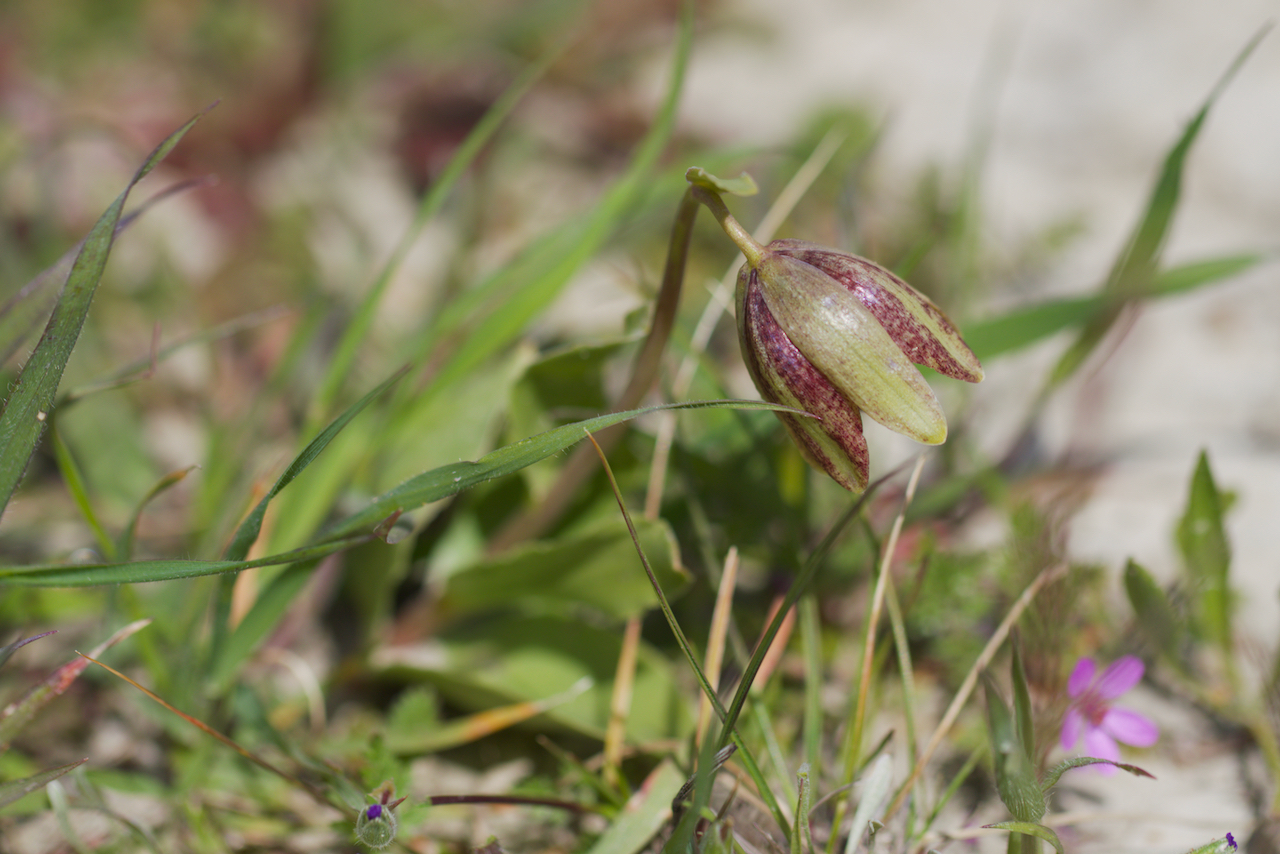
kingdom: Plantae
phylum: Tracheophyta
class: Liliopsida
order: Liliales
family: Liliaceae
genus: Fritillaria
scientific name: Fritillaria agrestis
